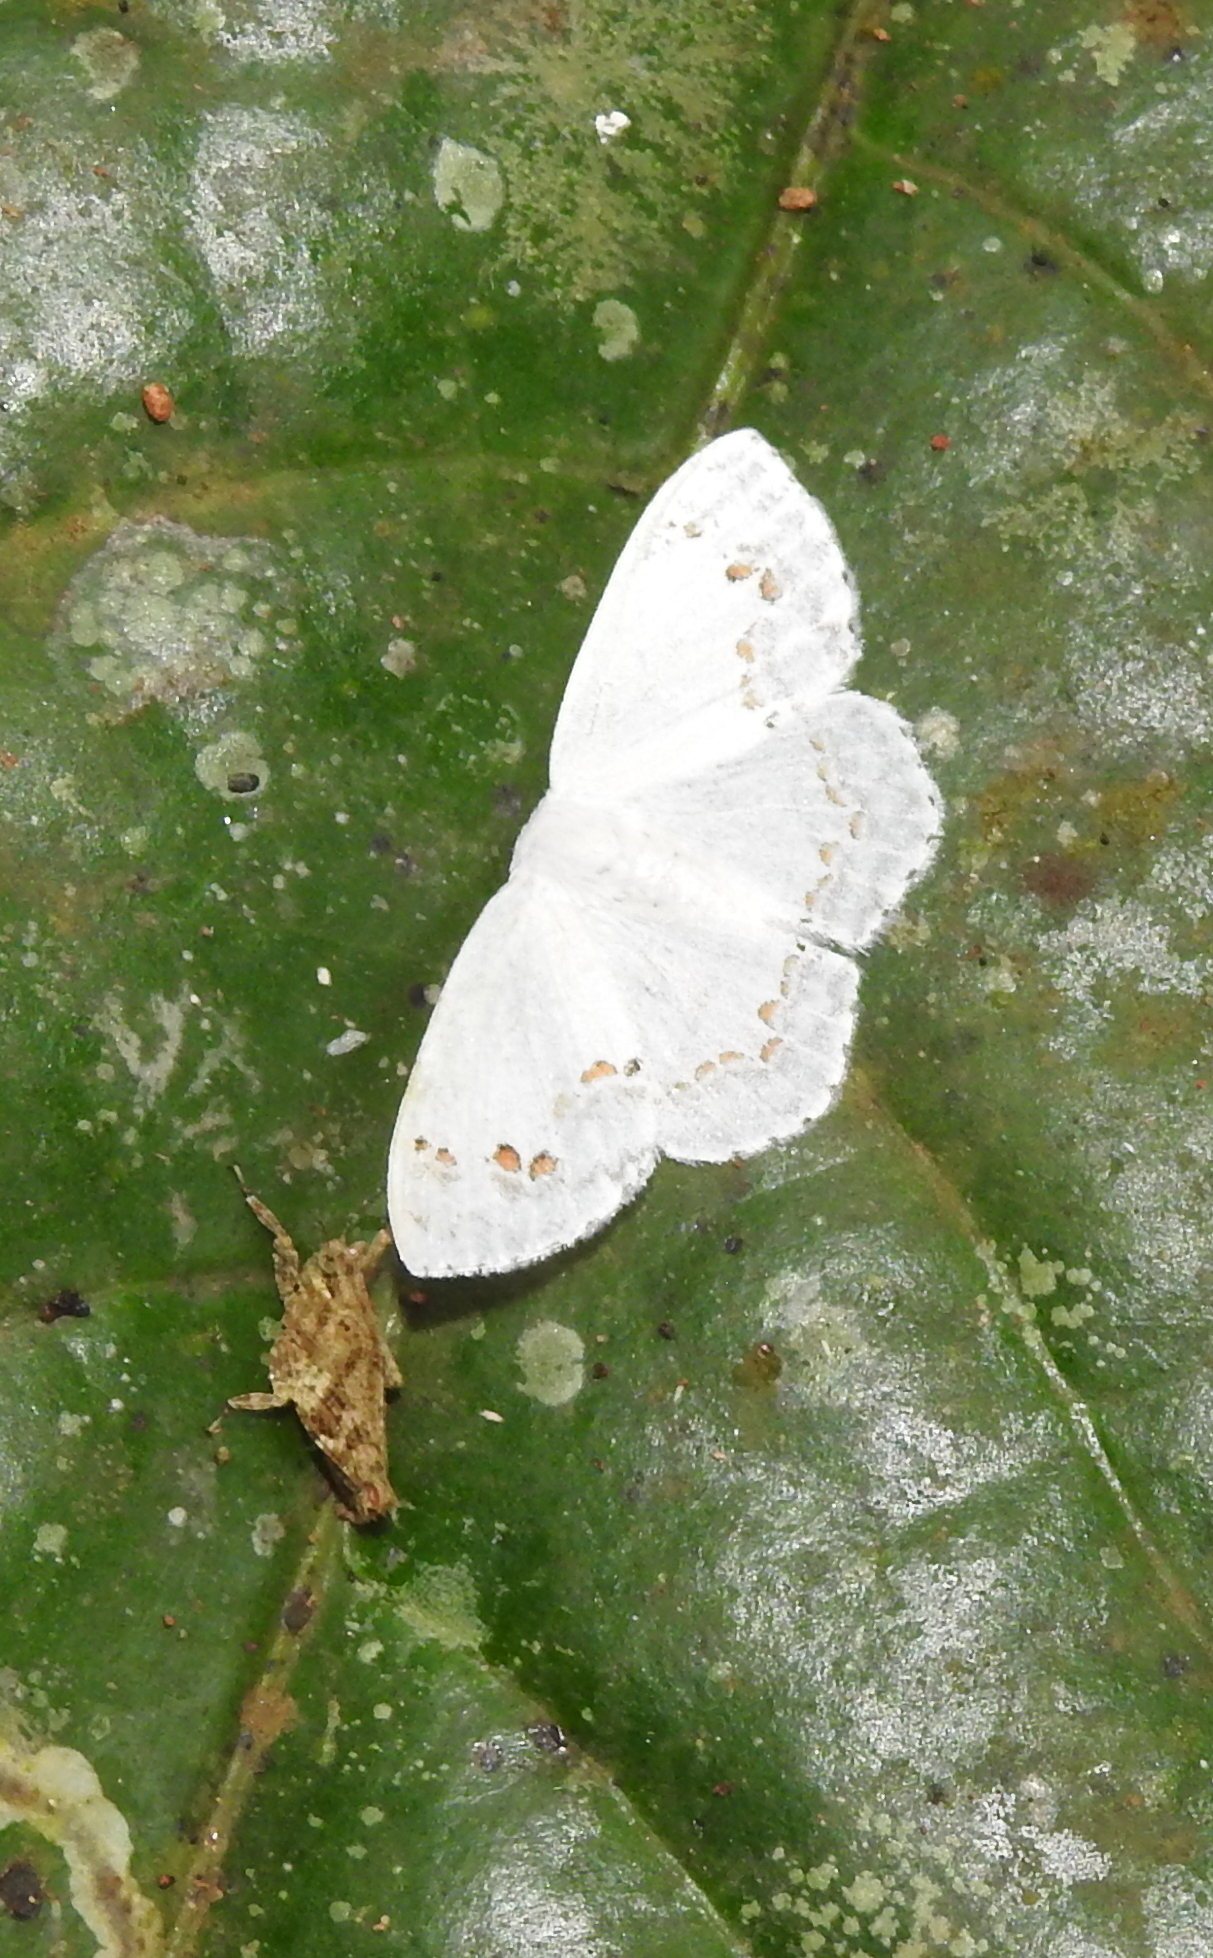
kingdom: Animalia
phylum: Arthropoda
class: Insecta
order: Lepidoptera
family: Drepanidae
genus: Teldenia
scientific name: Teldenia vestigiata
